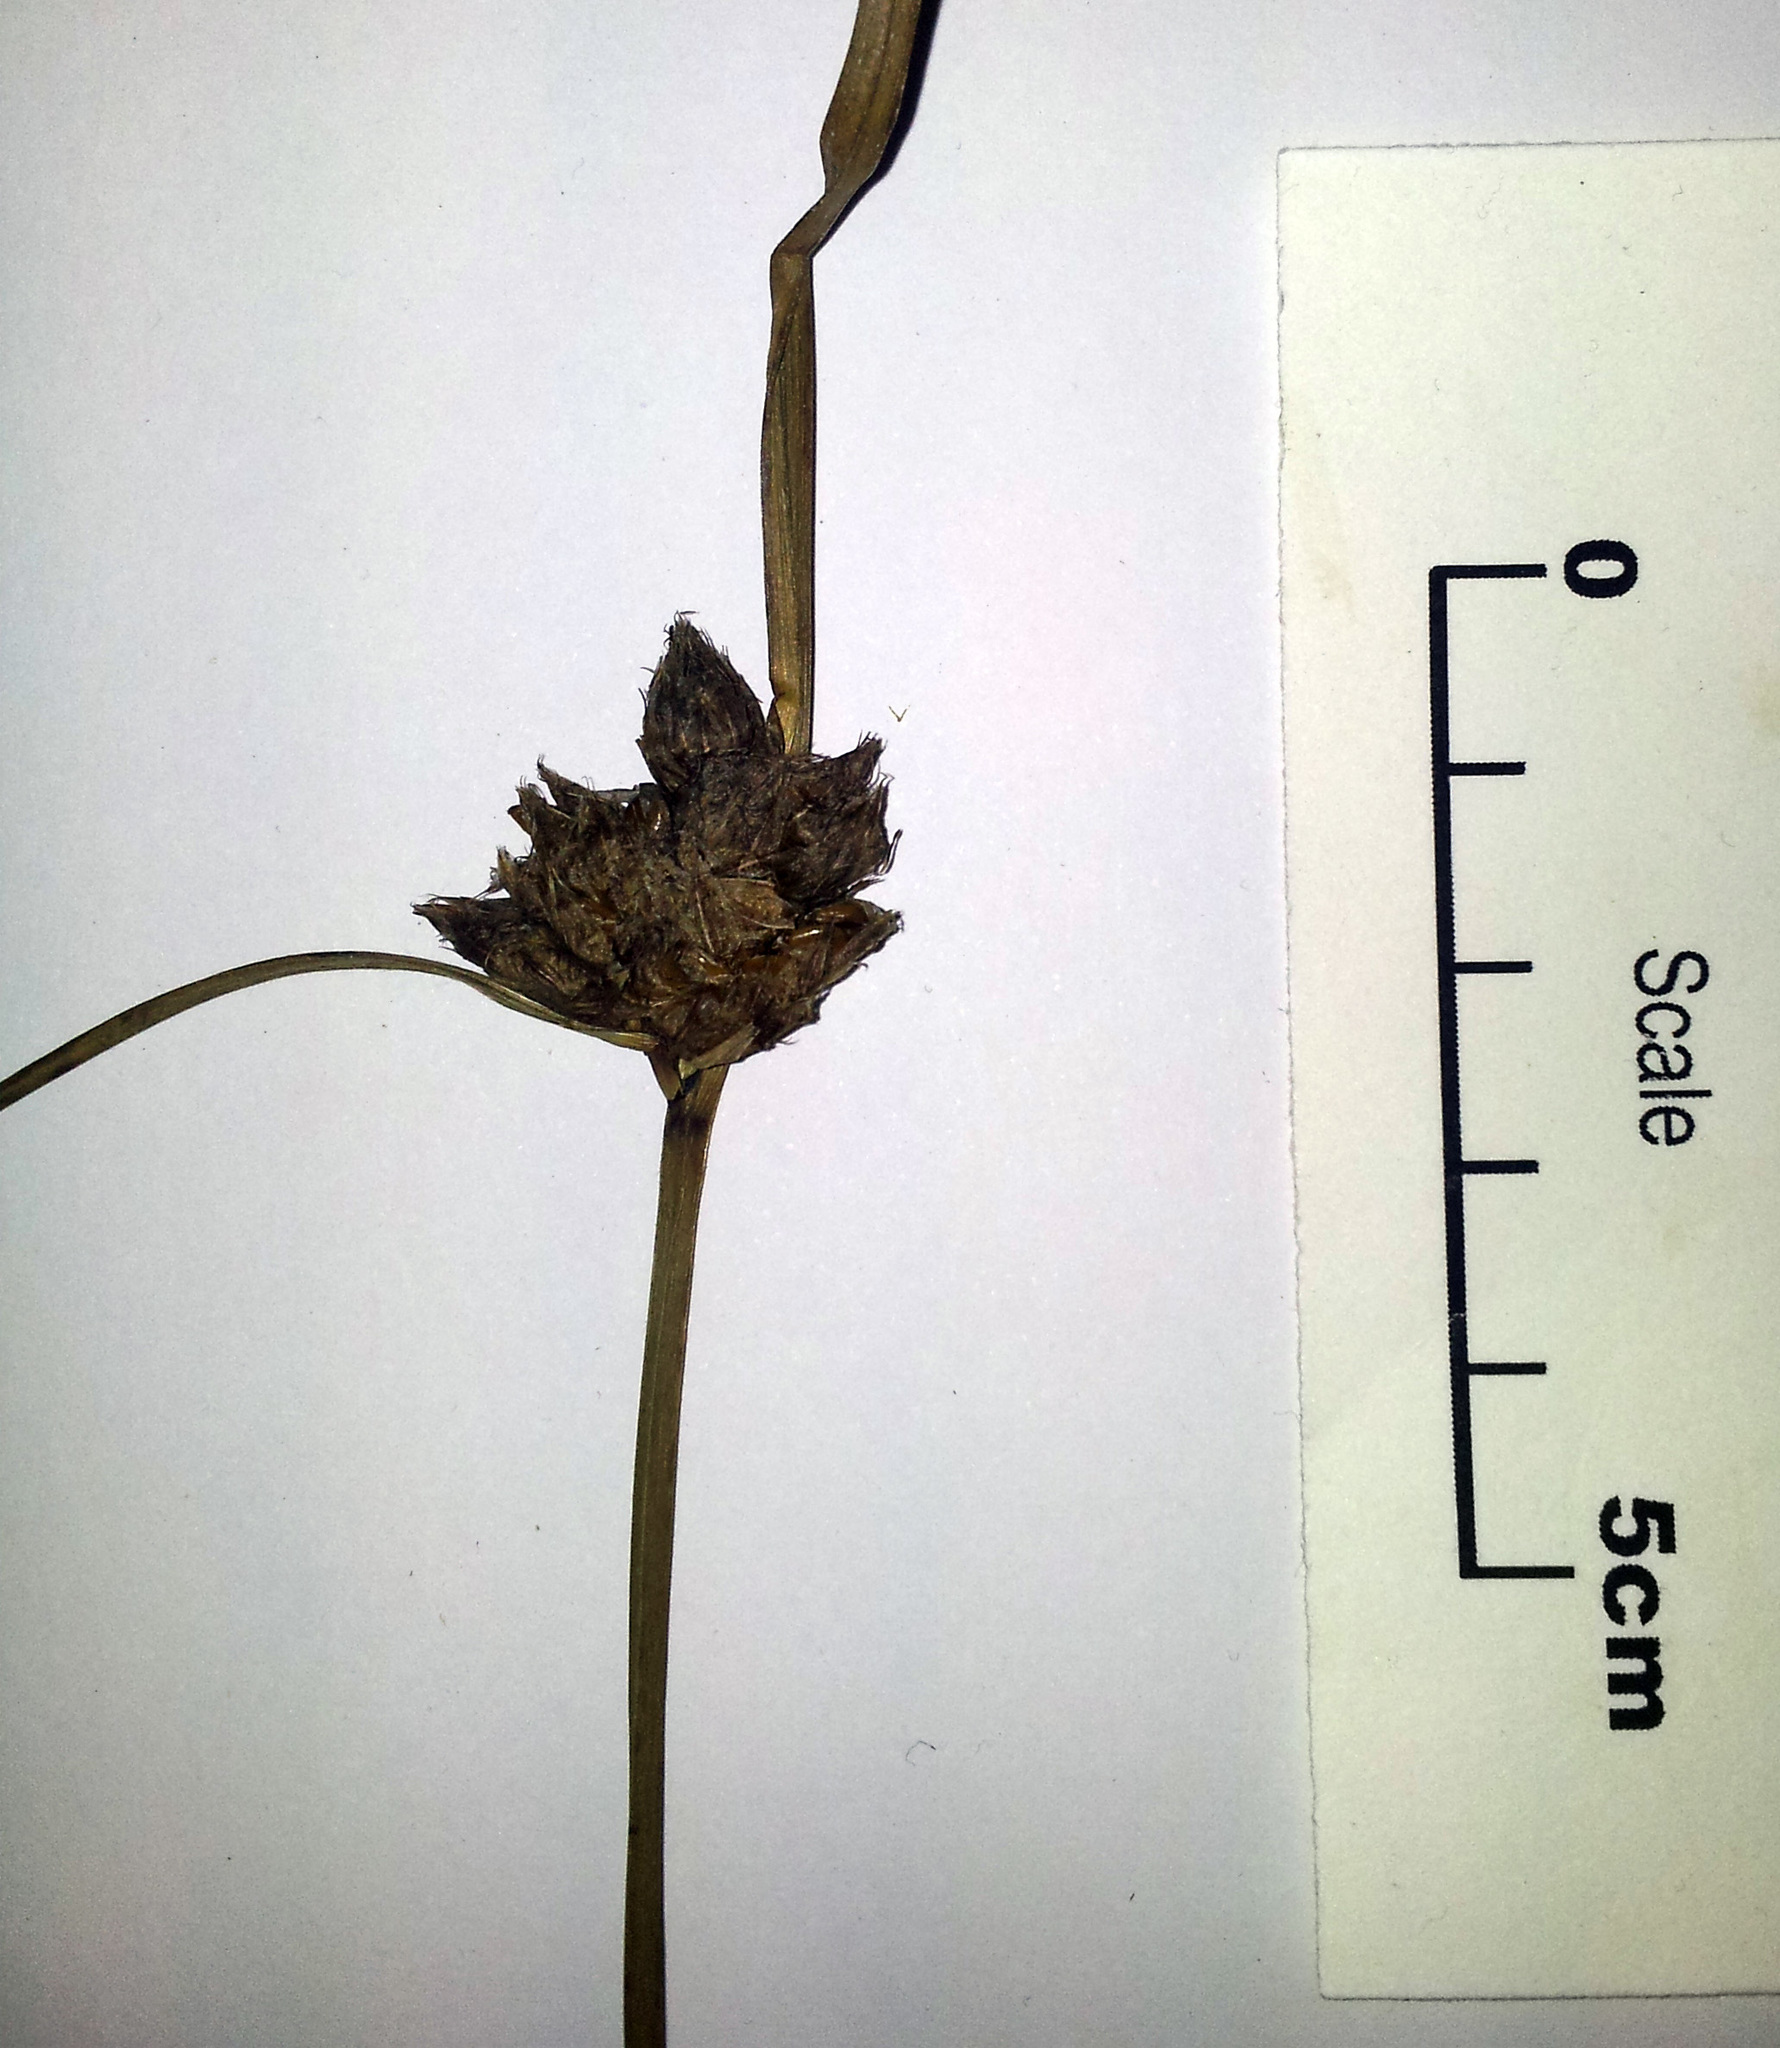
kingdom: Plantae
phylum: Tracheophyta
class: Liliopsida
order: Poales
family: Cyperaceae
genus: Bolboschoenus
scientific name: Bolboschoenus caldwellii
